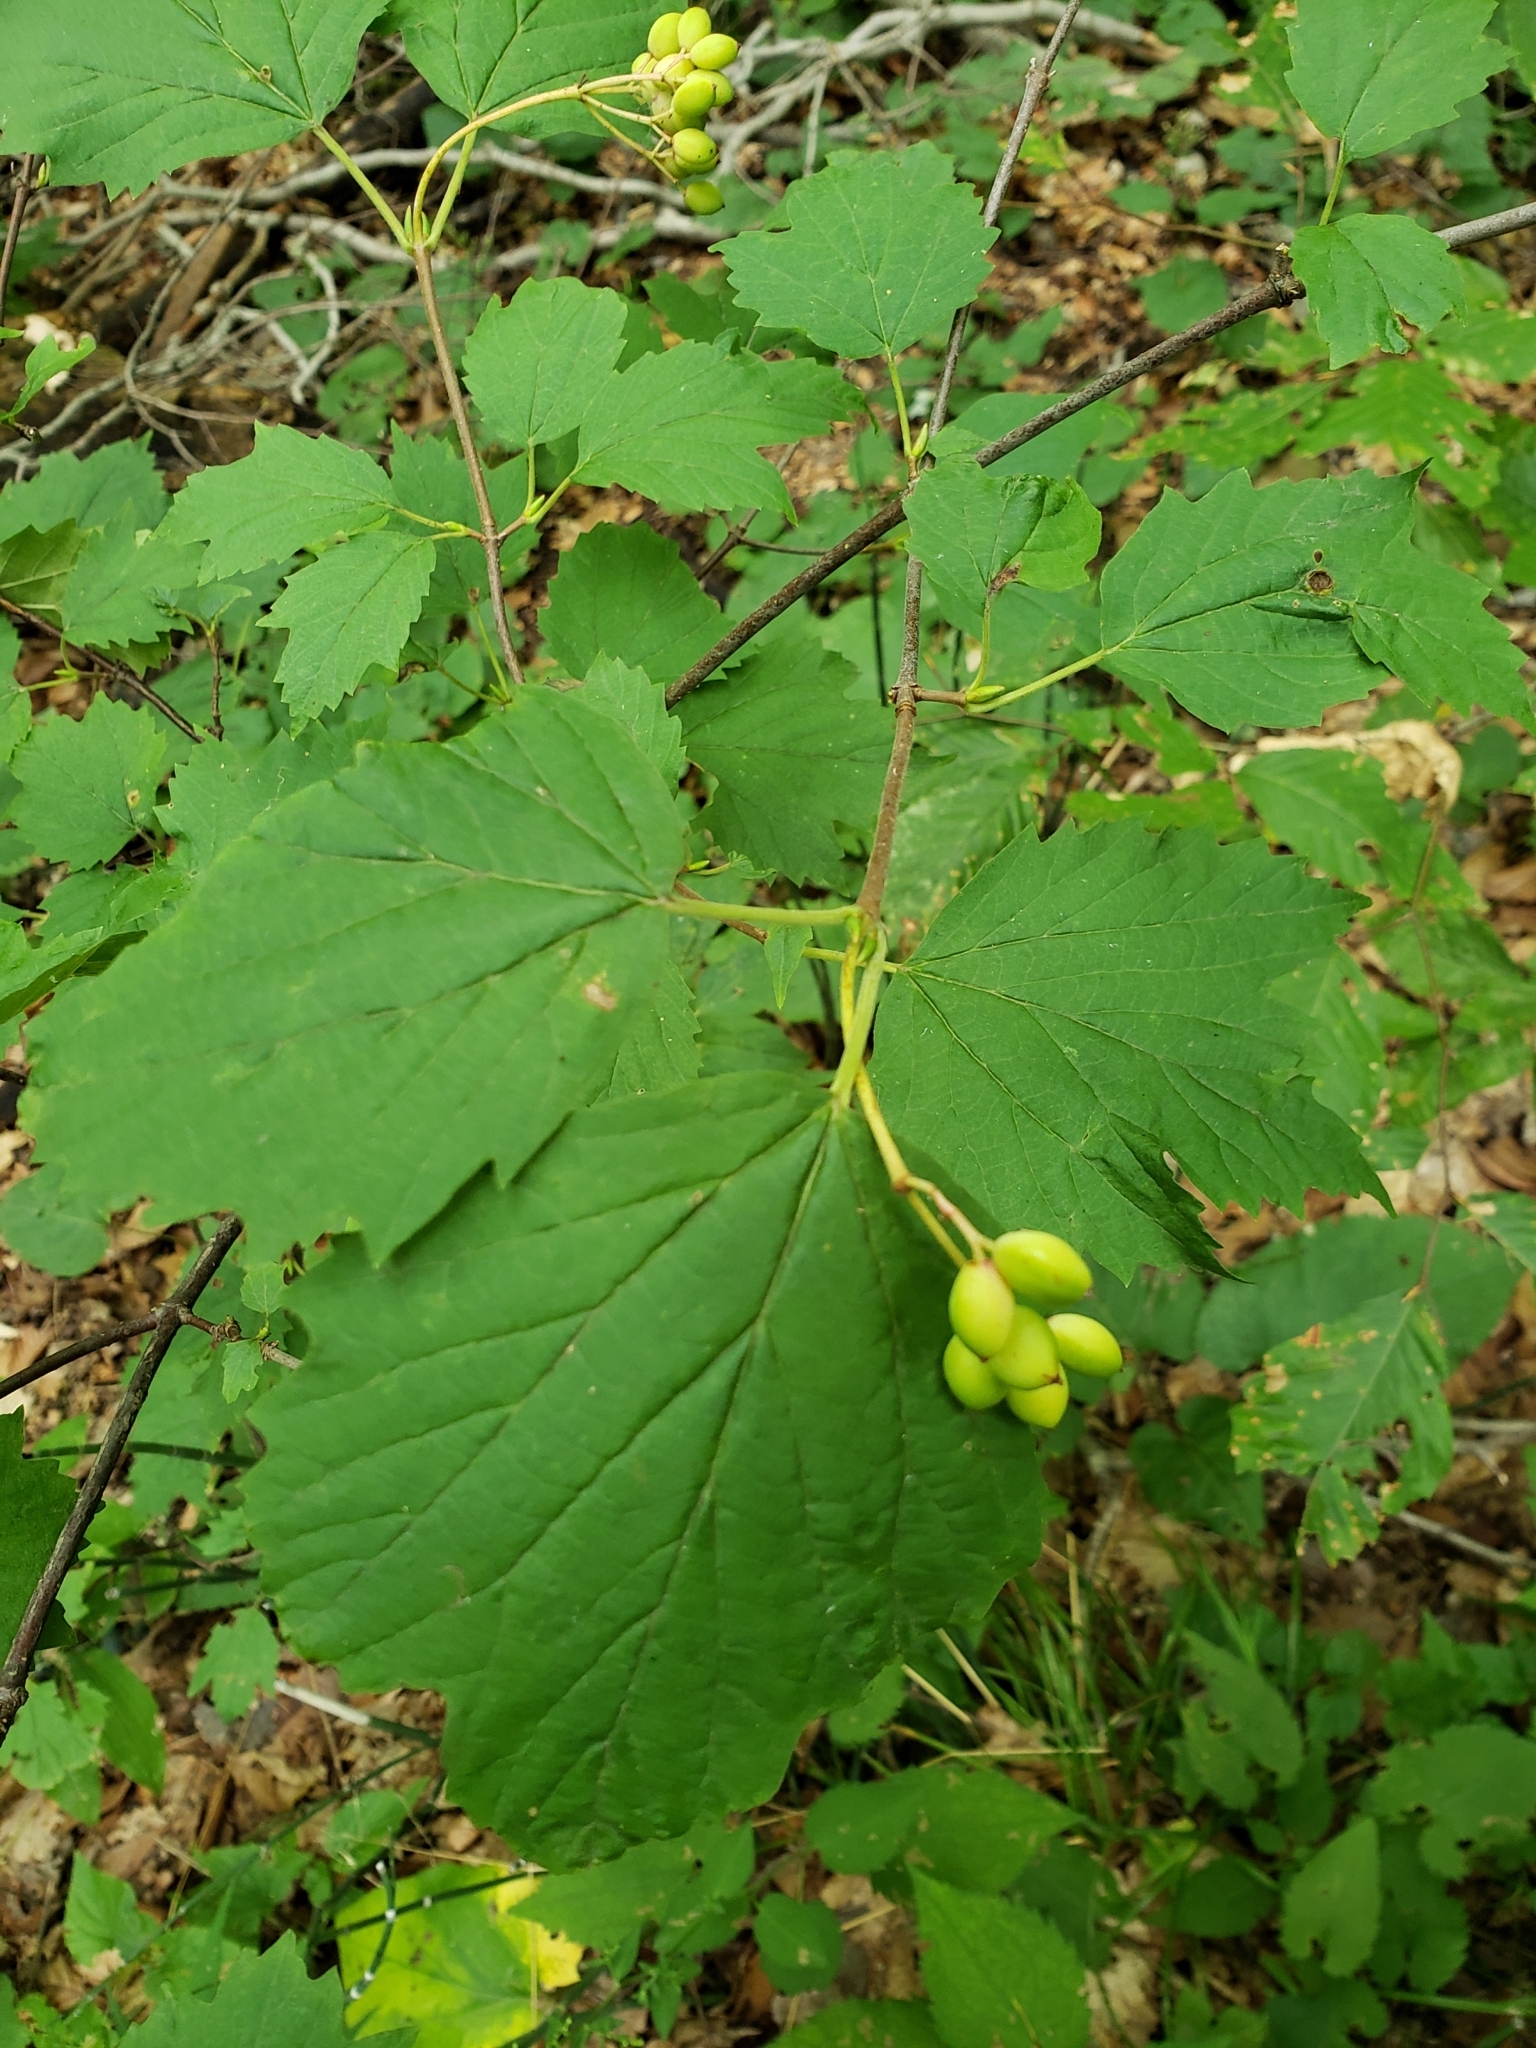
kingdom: Plantae
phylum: Tracheophyta
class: Magnoliopsida
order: Dipsacales
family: Viburnaceae
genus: Viburnum
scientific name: Viburnum acerifolium
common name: Dockmackie
